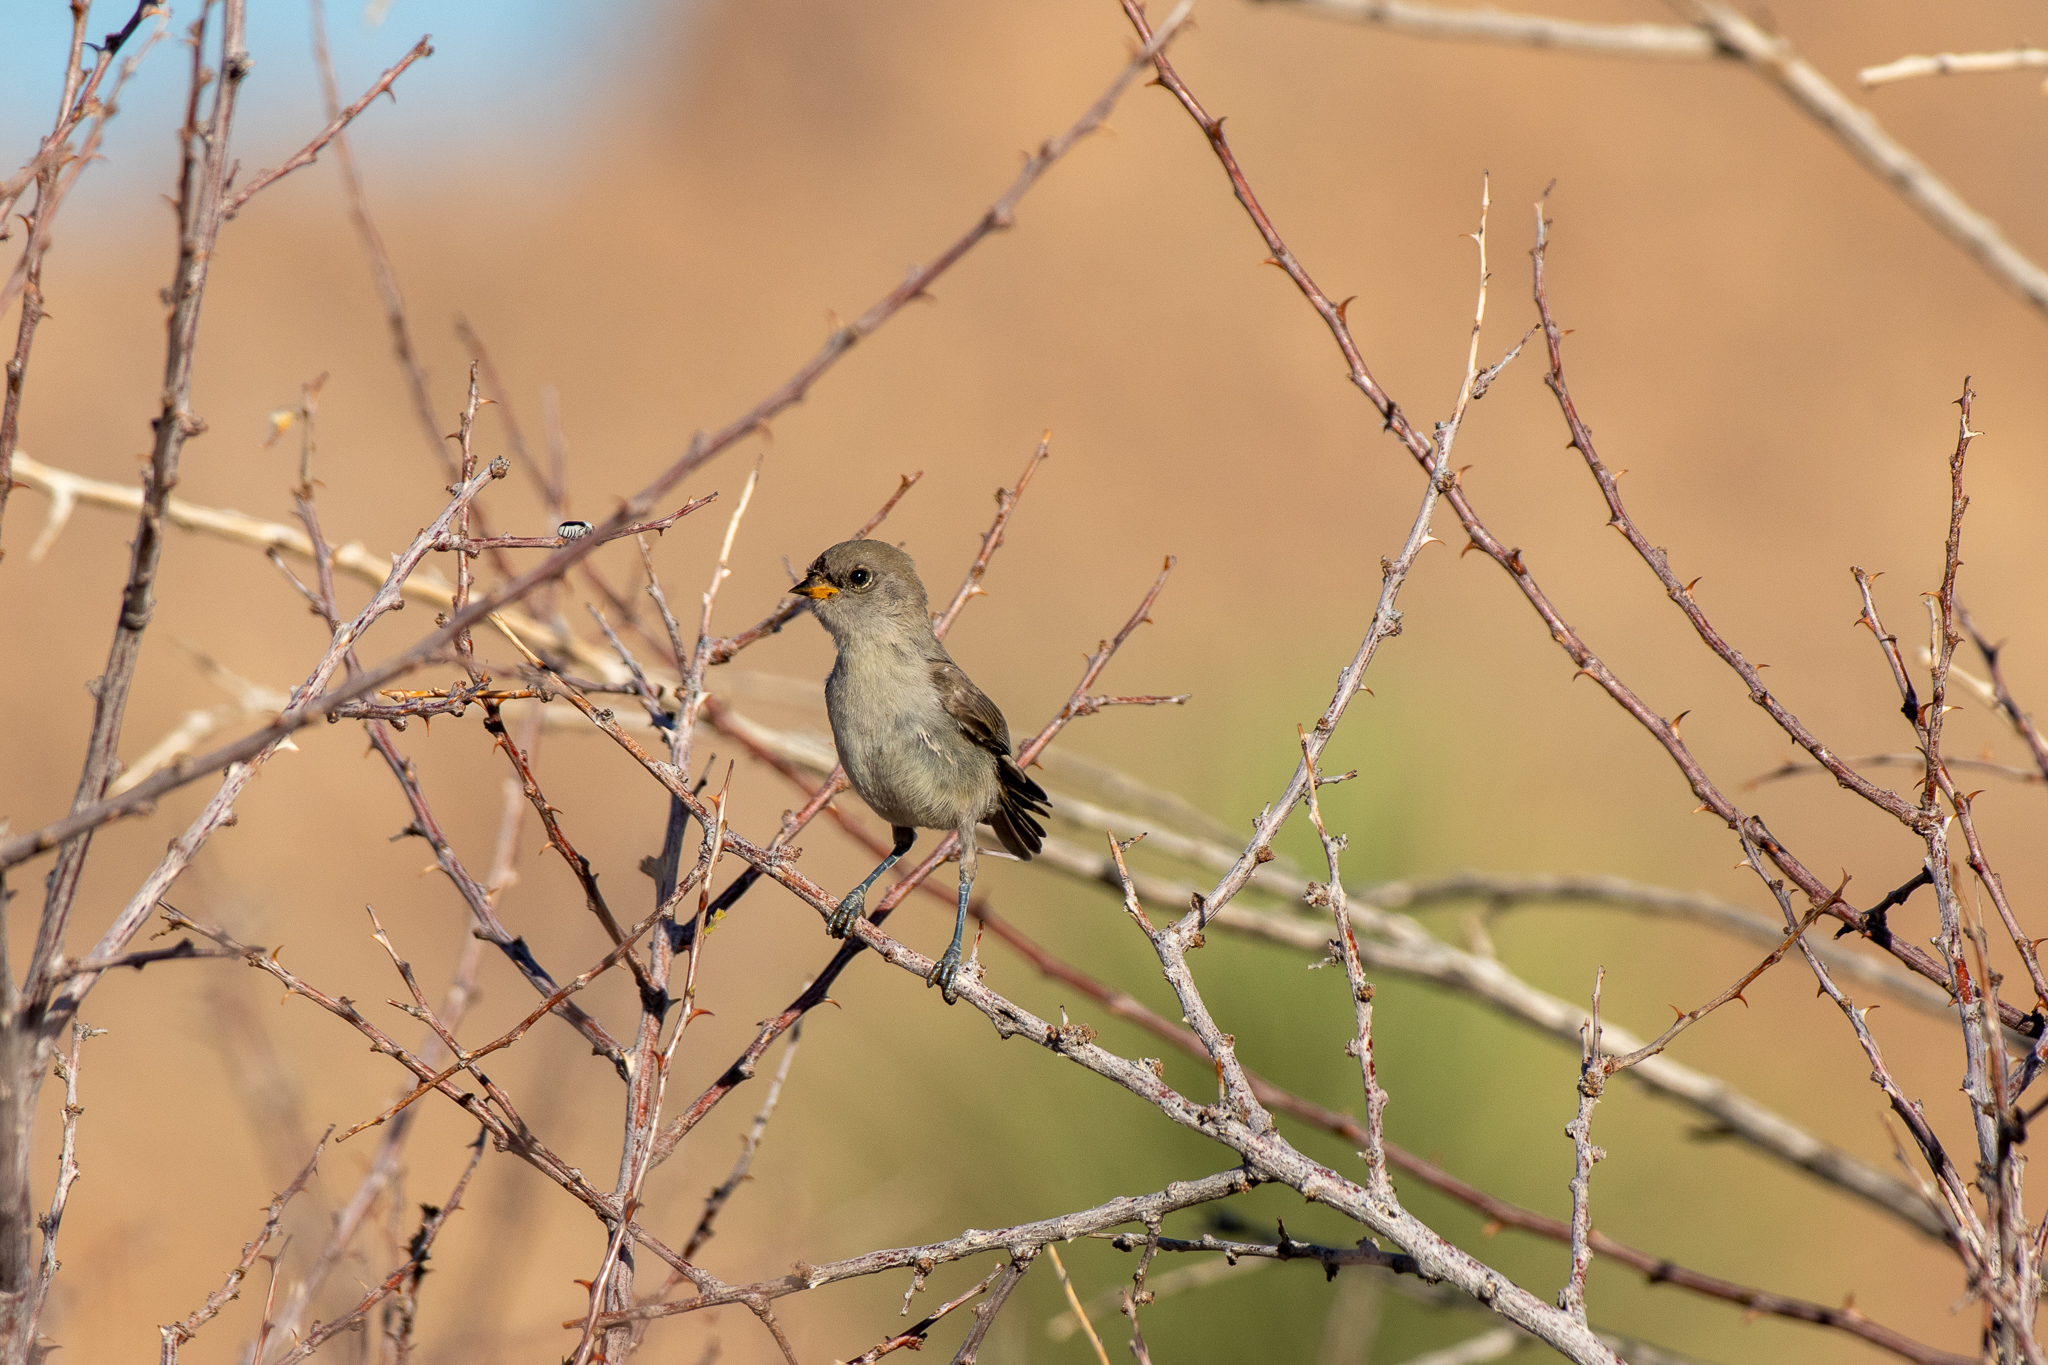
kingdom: Animalia
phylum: Chordata
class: Aves
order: Passeriformes
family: Remizidae
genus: Auriparus
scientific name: Auriparus flaviceps
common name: Verdin
